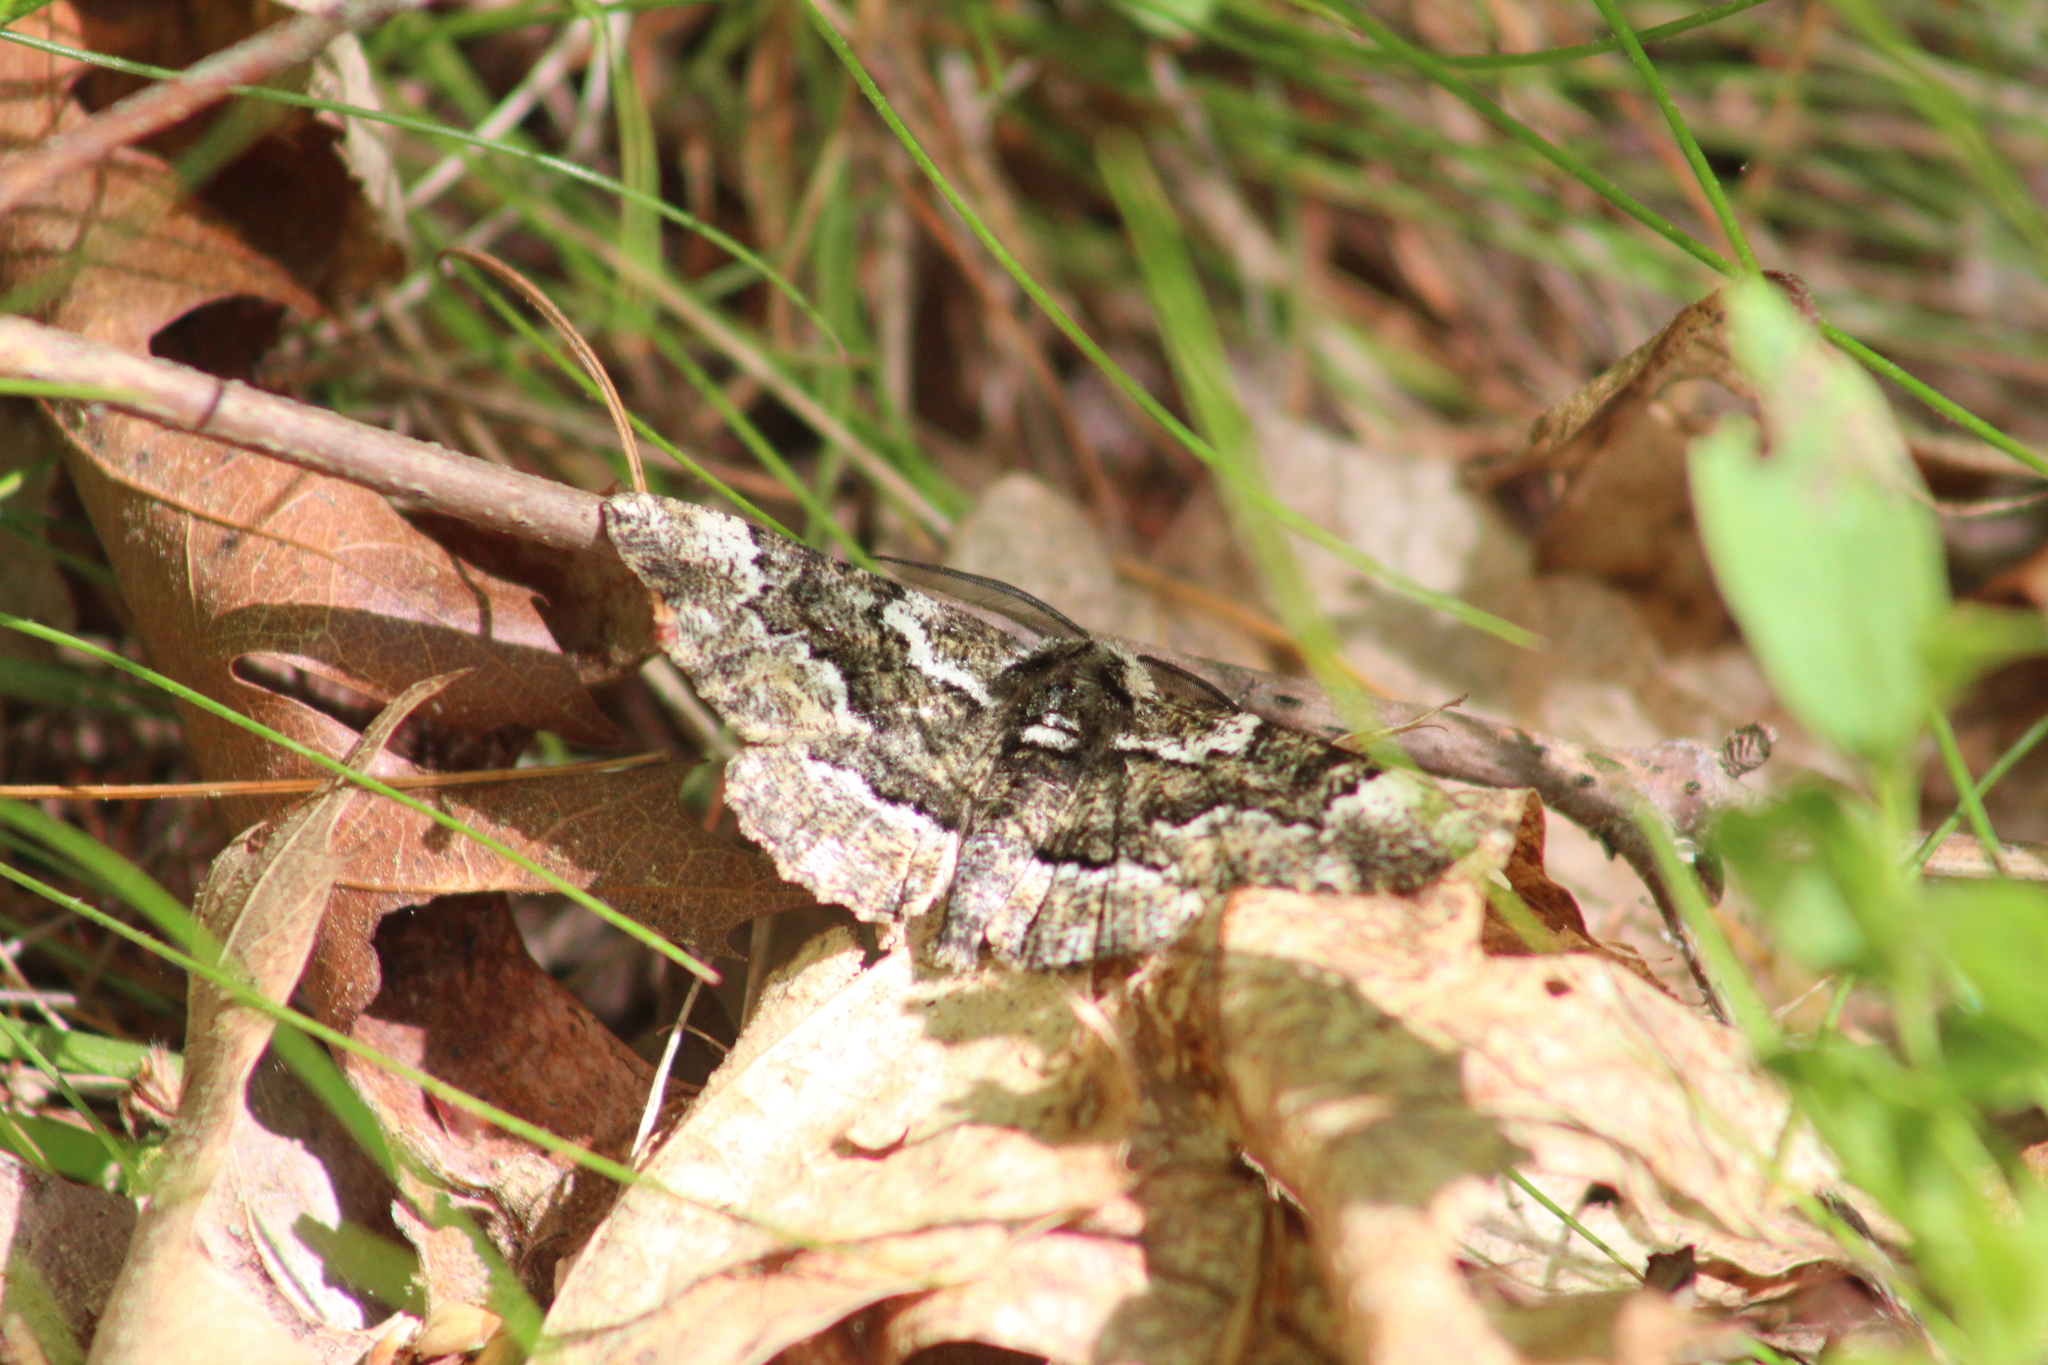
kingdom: Animalia
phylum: Arthropoda
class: Insecta
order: Lepidoptera
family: Geometridae
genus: Phaeoura
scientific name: Phaeoura quernaria
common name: Oak beauty
